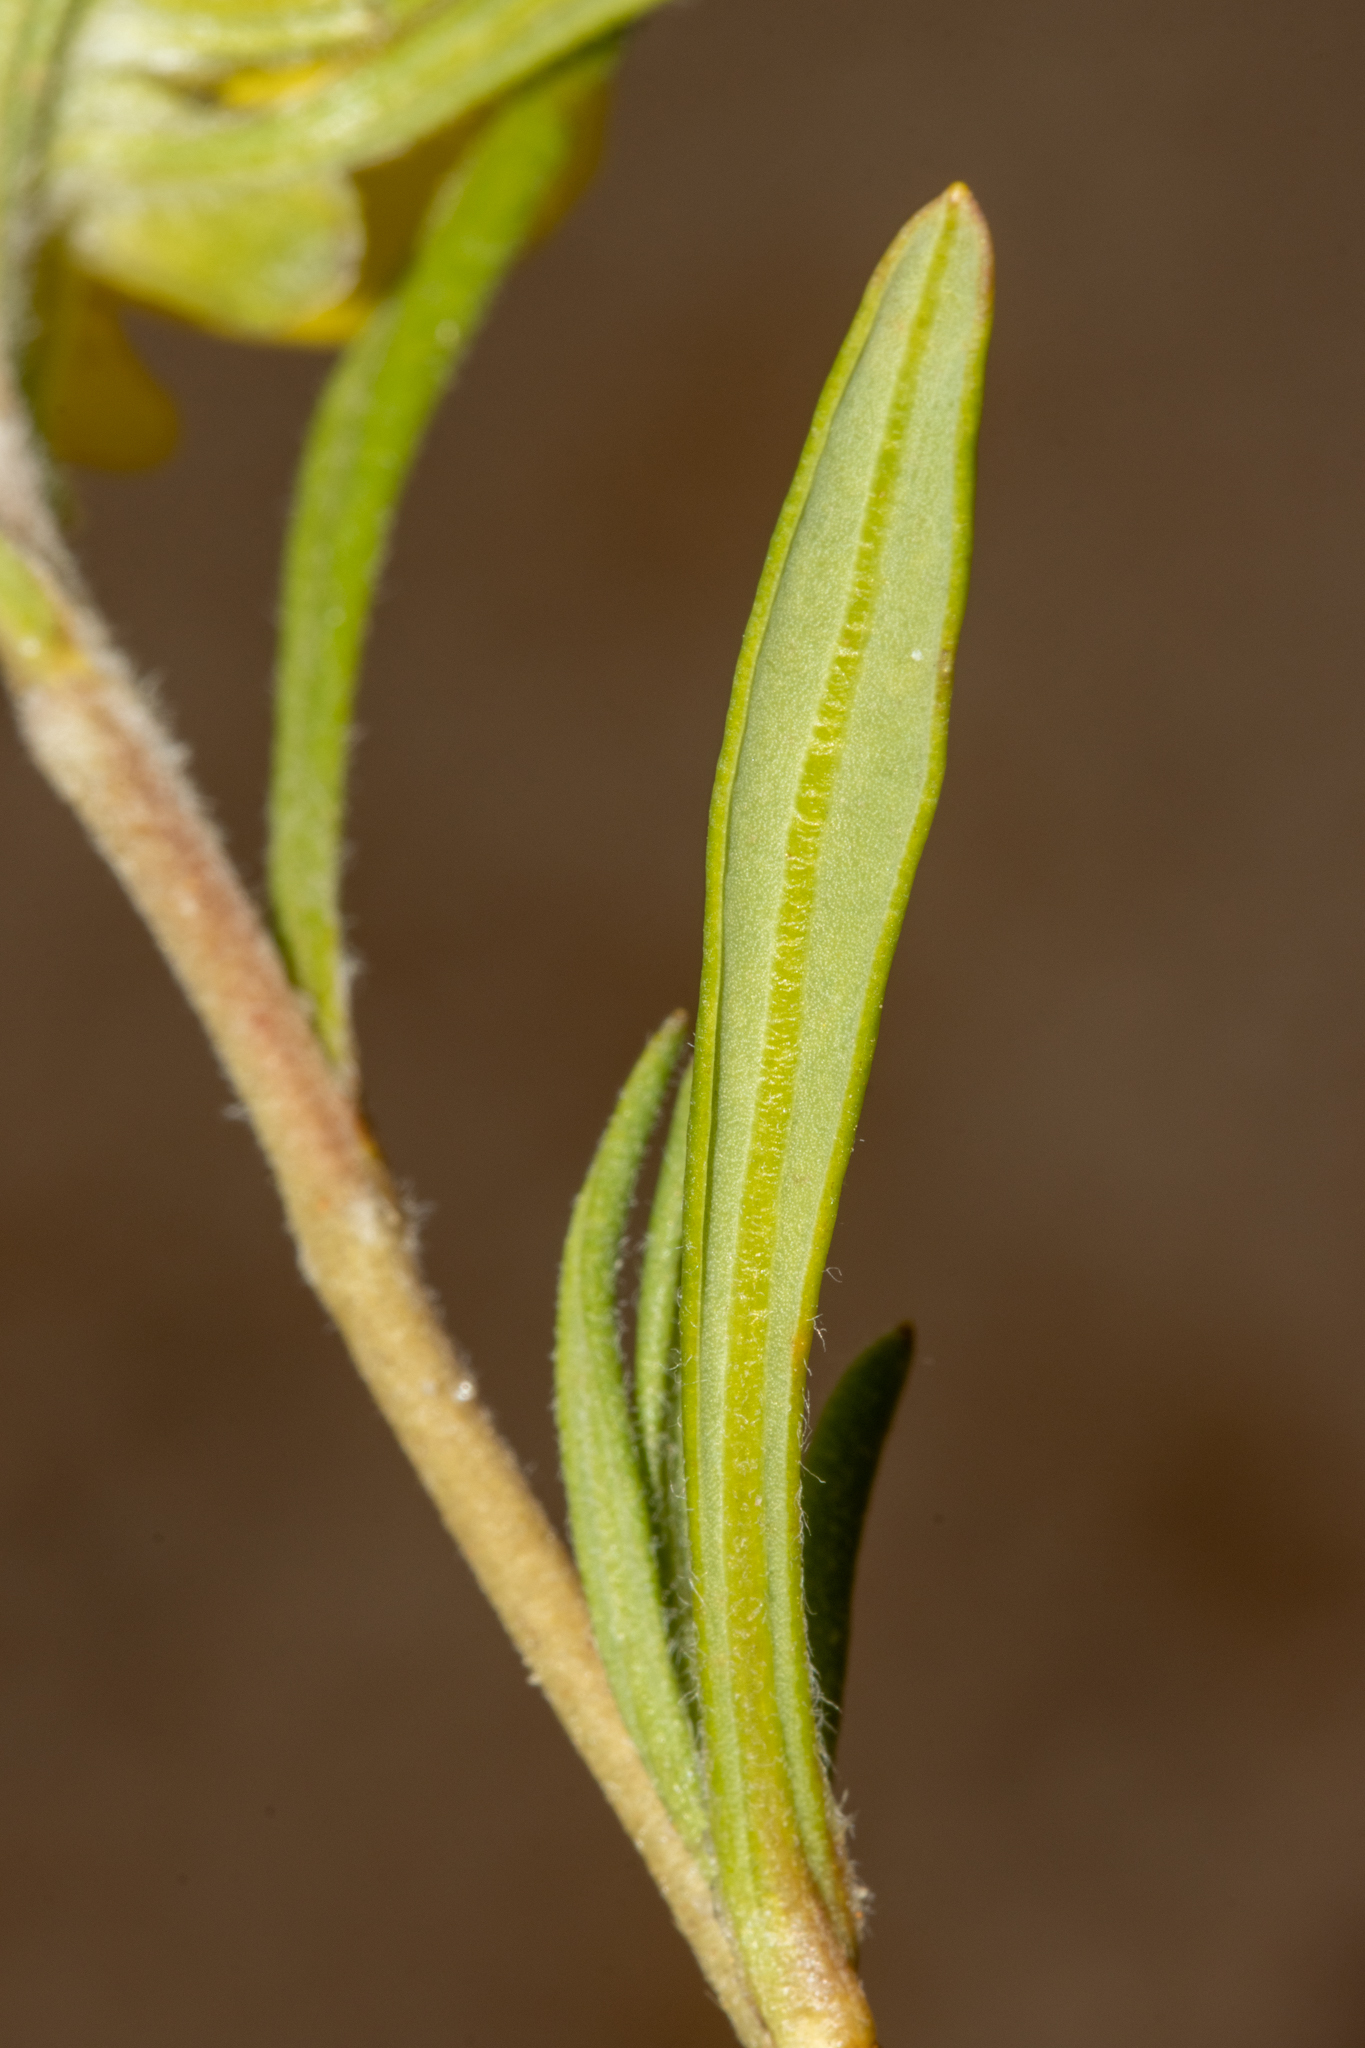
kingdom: Plantae
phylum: Tracheophyta
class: Magnoliopsida
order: Dilleniales
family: Dilleniaceae
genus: Hibbertia
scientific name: Hibbertia pubens
